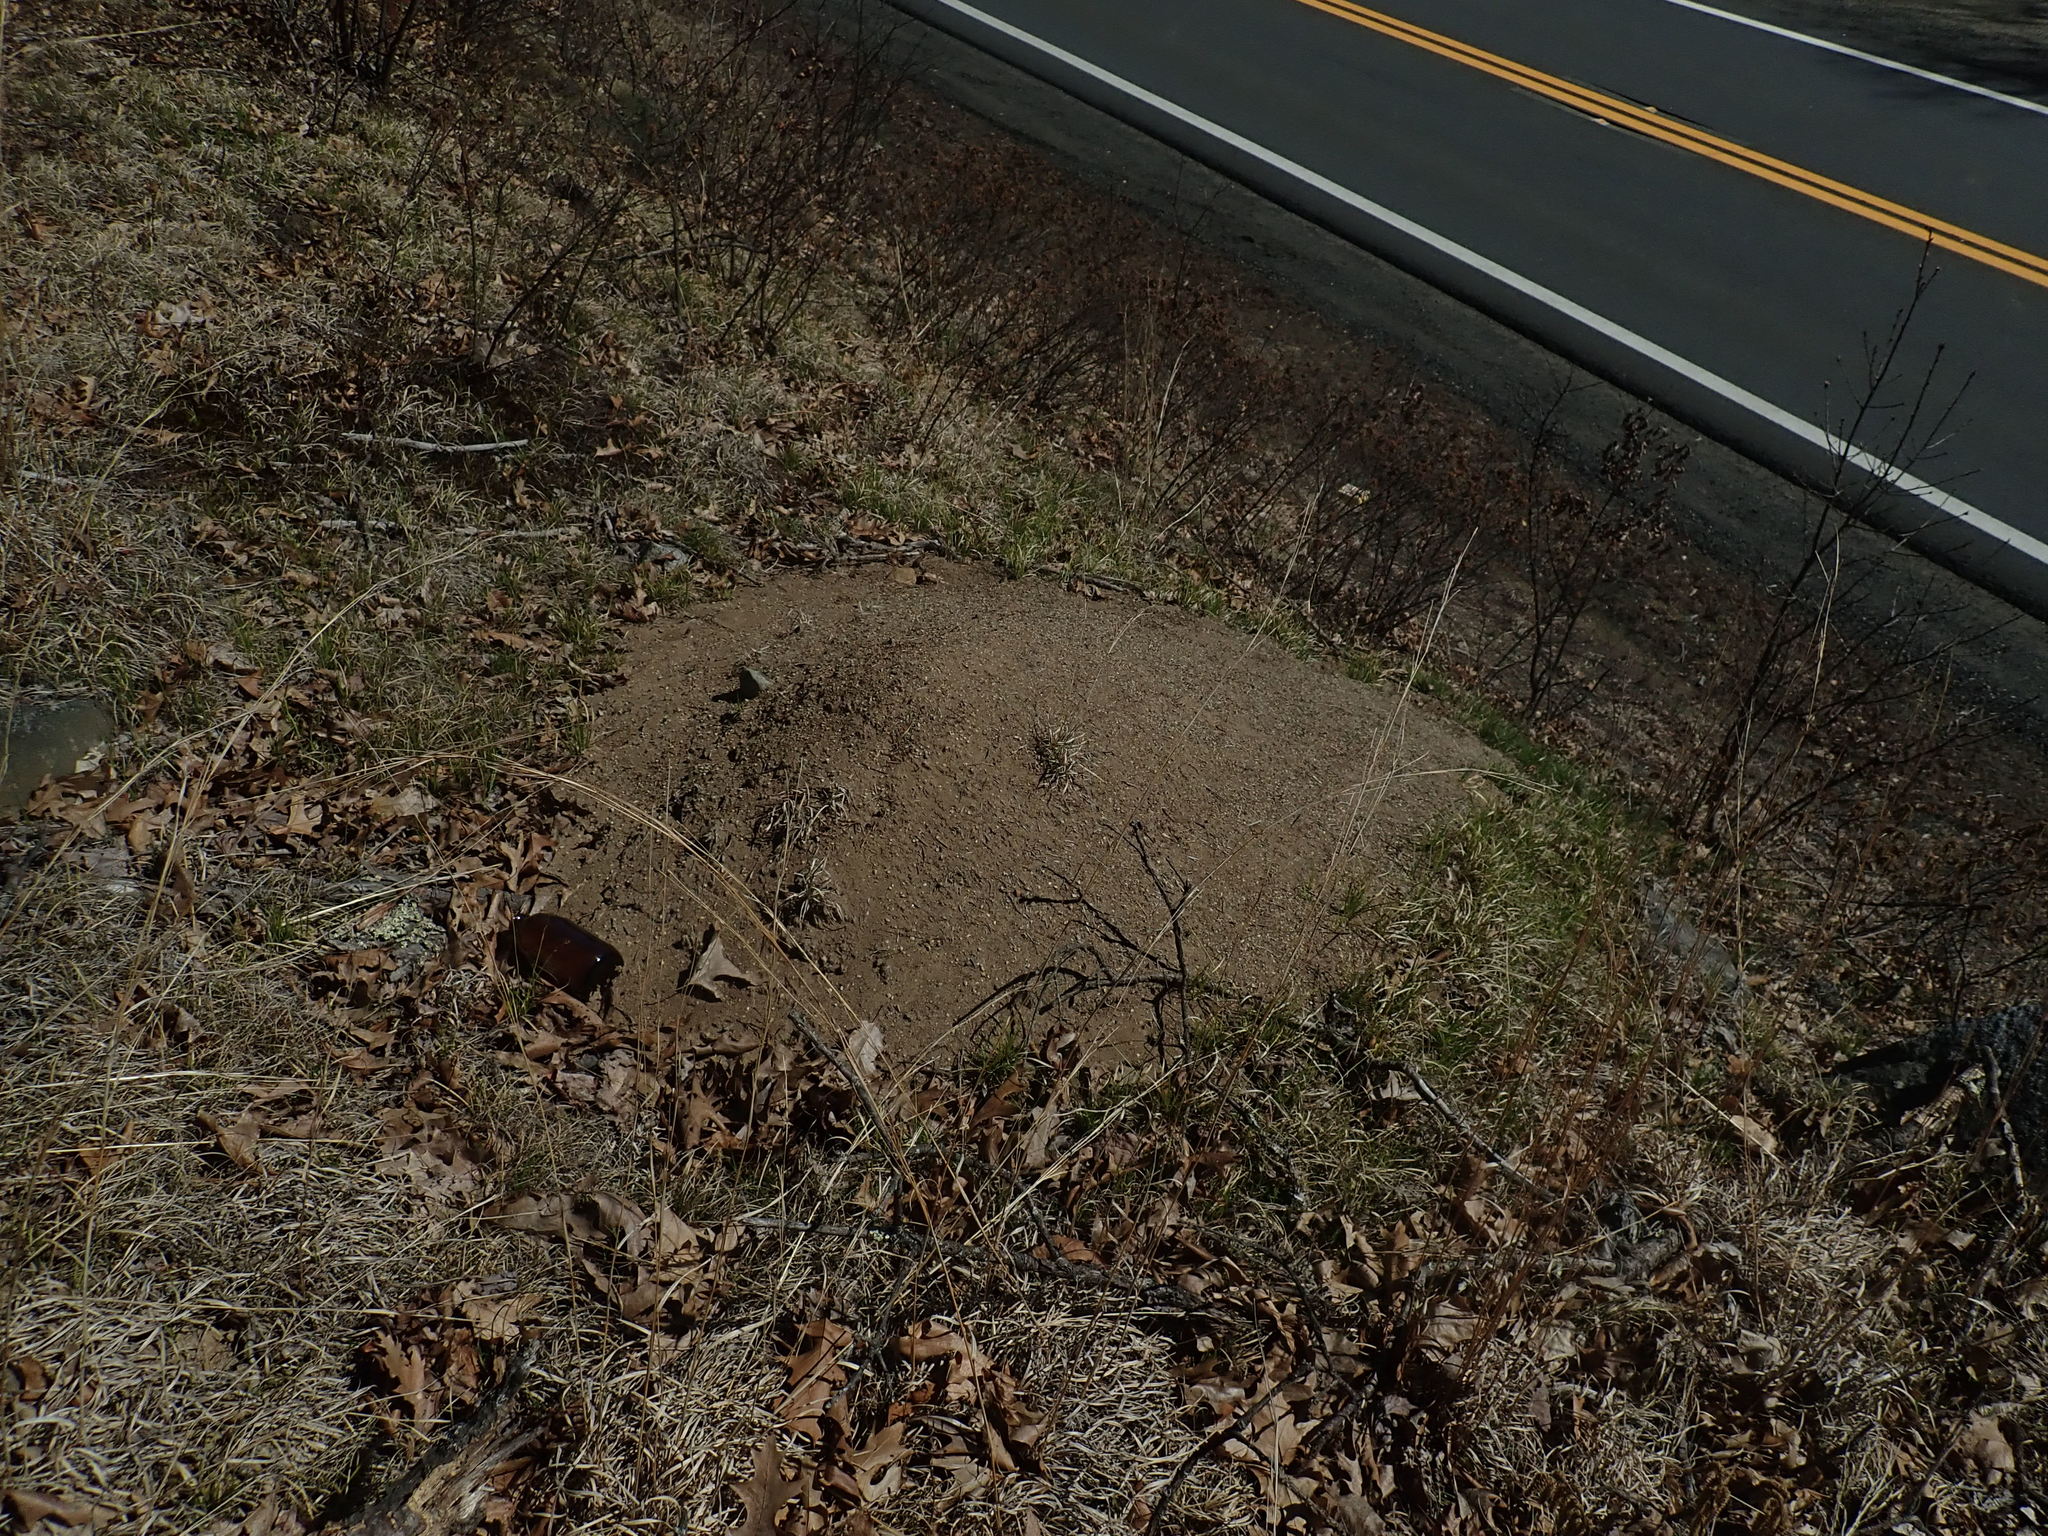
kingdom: Animalia
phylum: Arthropoda
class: Insecta
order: Hymenoptera
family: Formicidae
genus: Formica
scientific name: Formica exsectoides
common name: Allegheny mound ant
